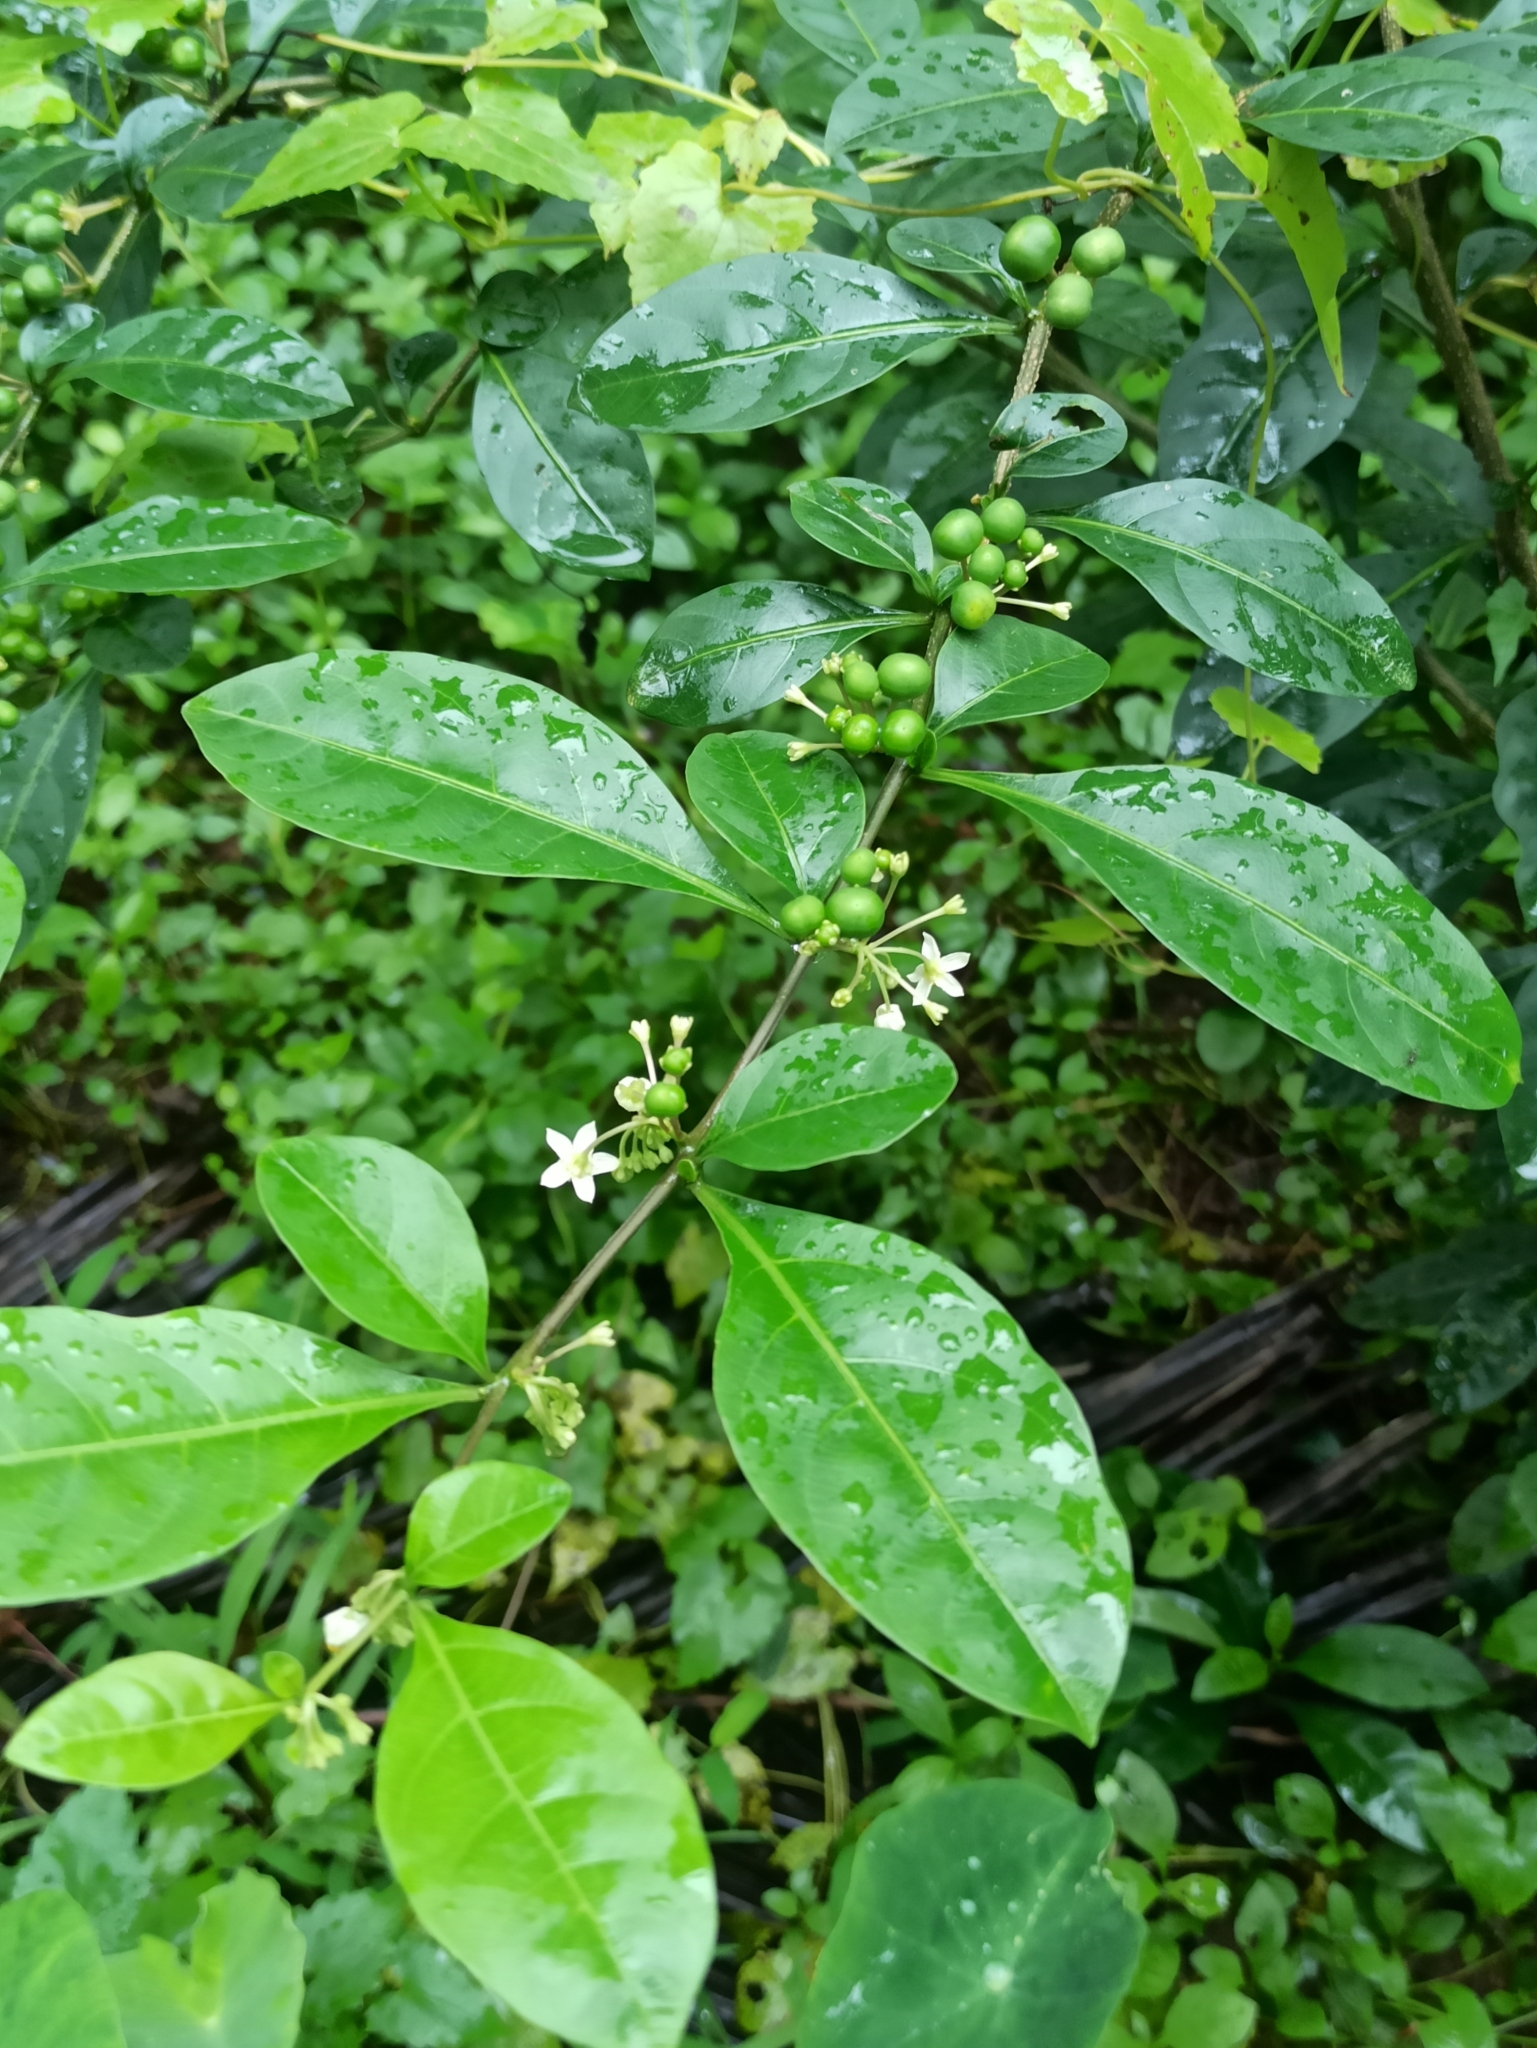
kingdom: Plantae
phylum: Tracheophyta
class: Magnoliopsida
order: Solanales
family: Solanaceae
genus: Solanum
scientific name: Solanum diphyllum
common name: Twoleaf nightshade
